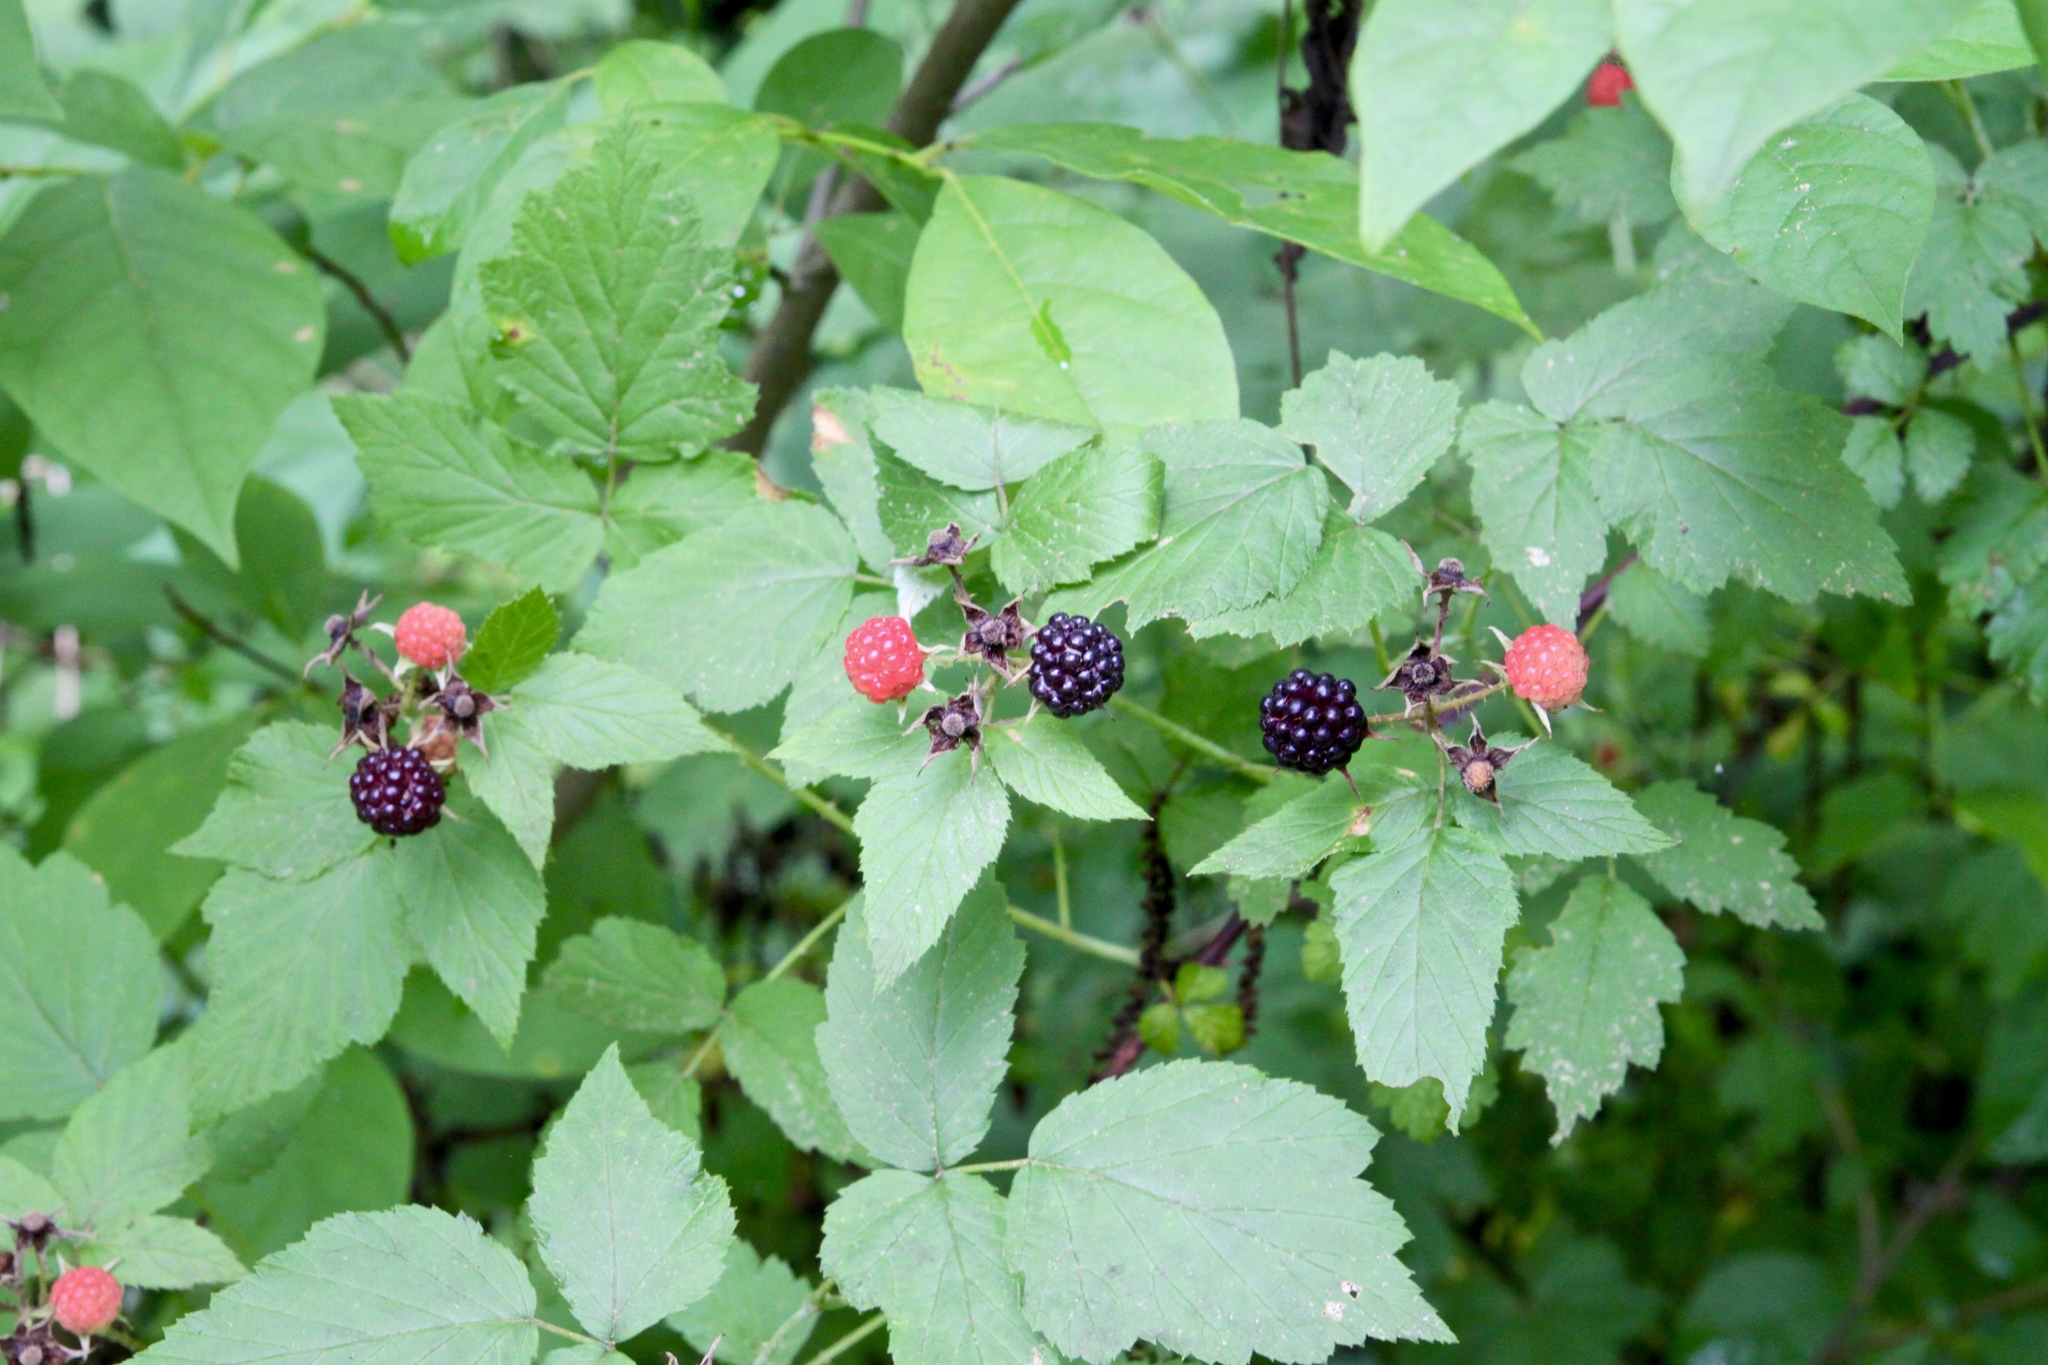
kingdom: Plantae
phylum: Tracheophyta
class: Magnoliopsida
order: Rosales
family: Rosaceae
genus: Rubus
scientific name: Rubus occidentalis
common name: Black raspberry
